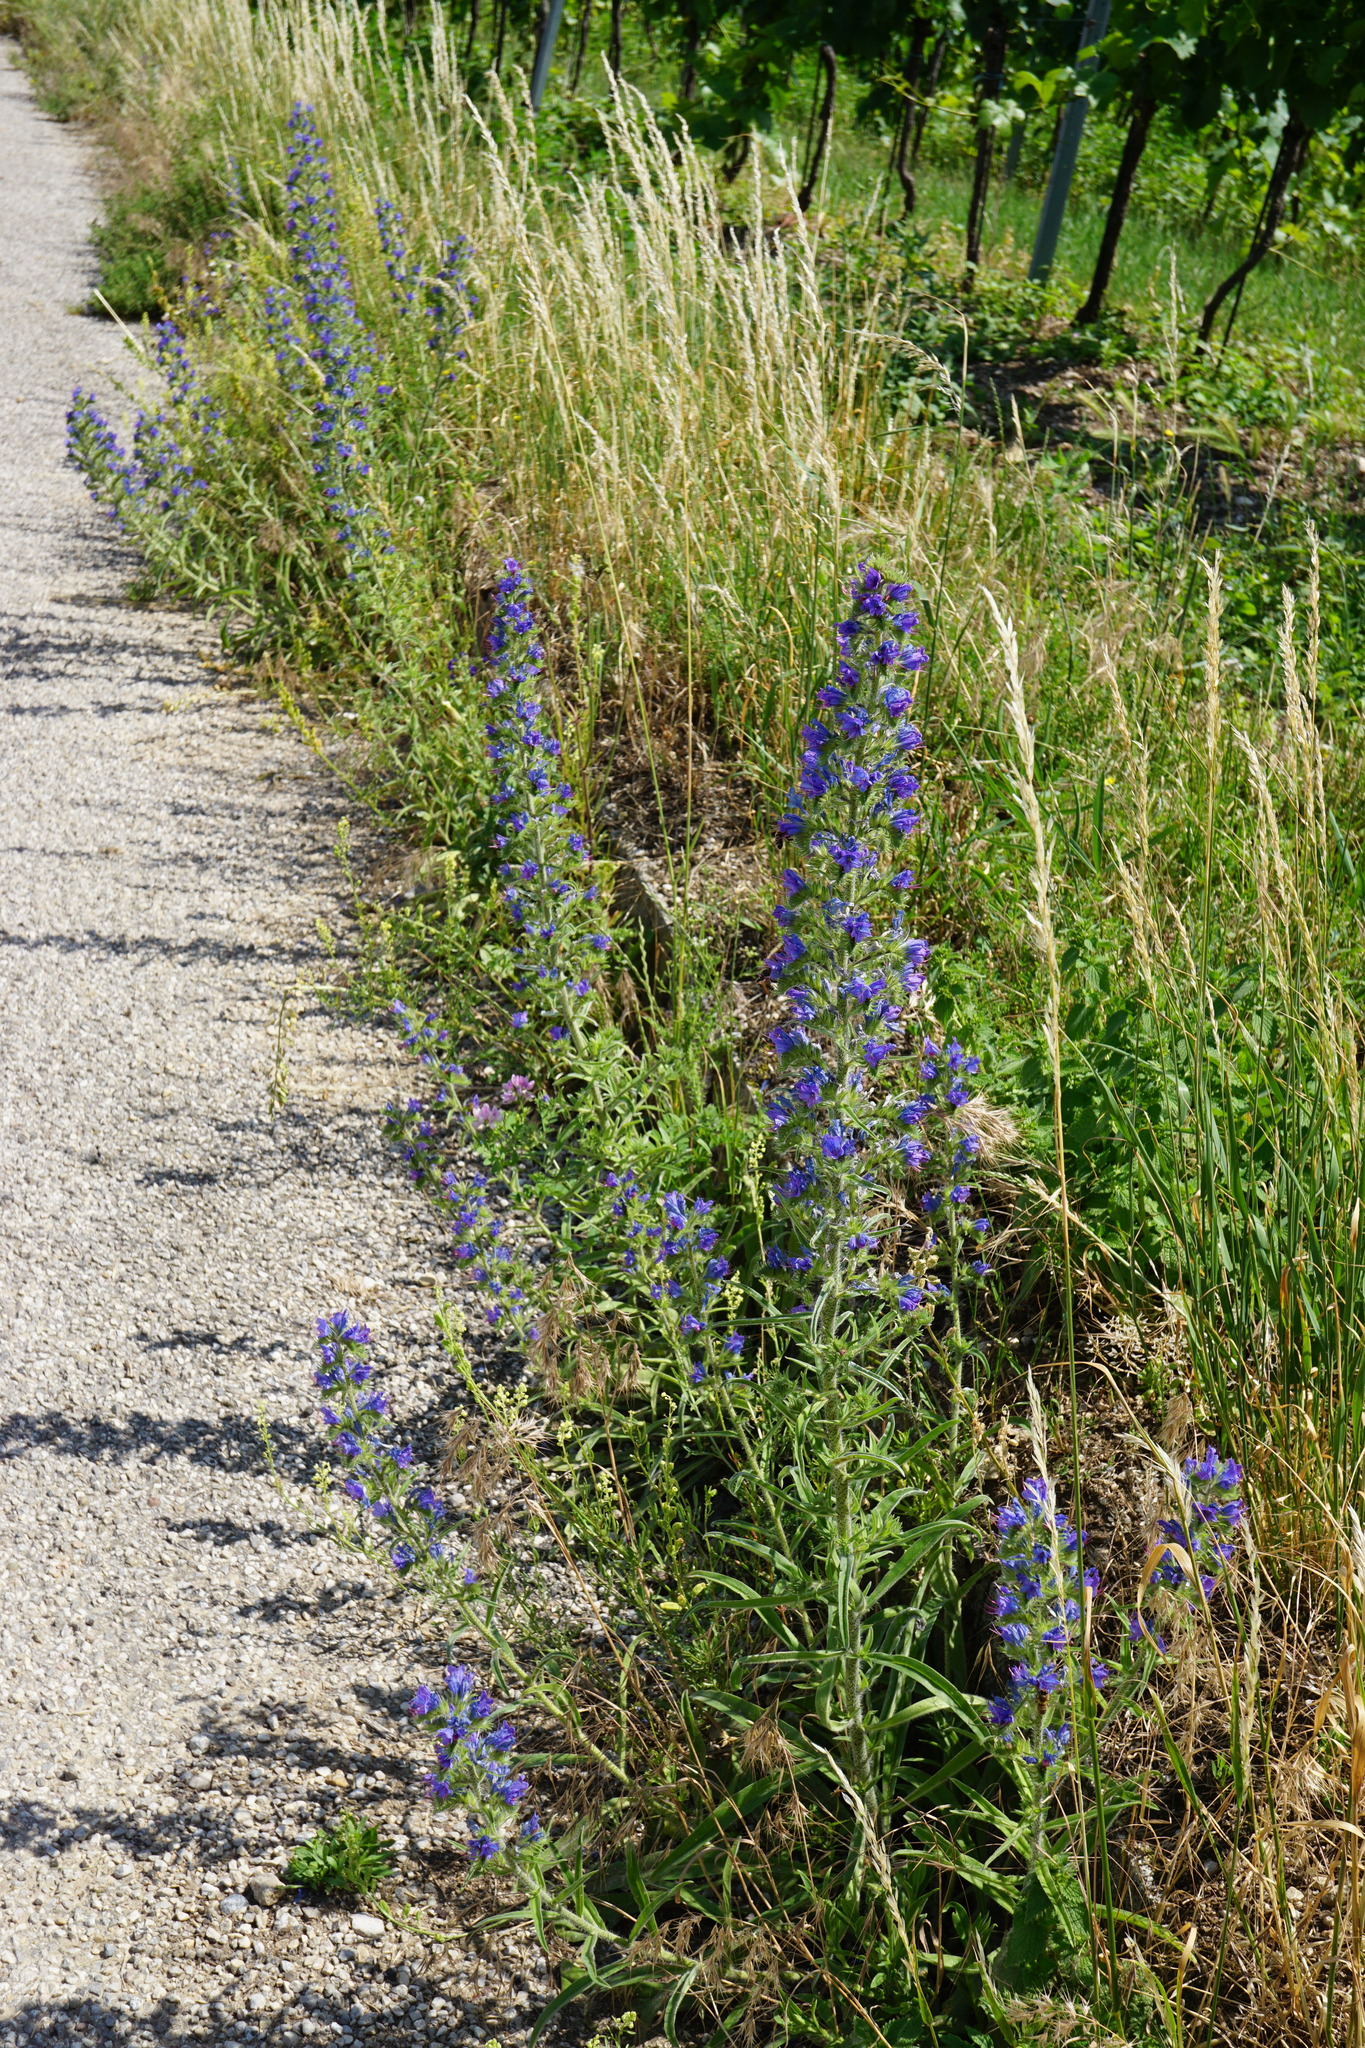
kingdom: Plantae
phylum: Tracheophyta
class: Magnoliopsida
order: Boraginales
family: Boraginaceae
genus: Echium
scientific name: Echium vulgare
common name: Common viper's bugloss
